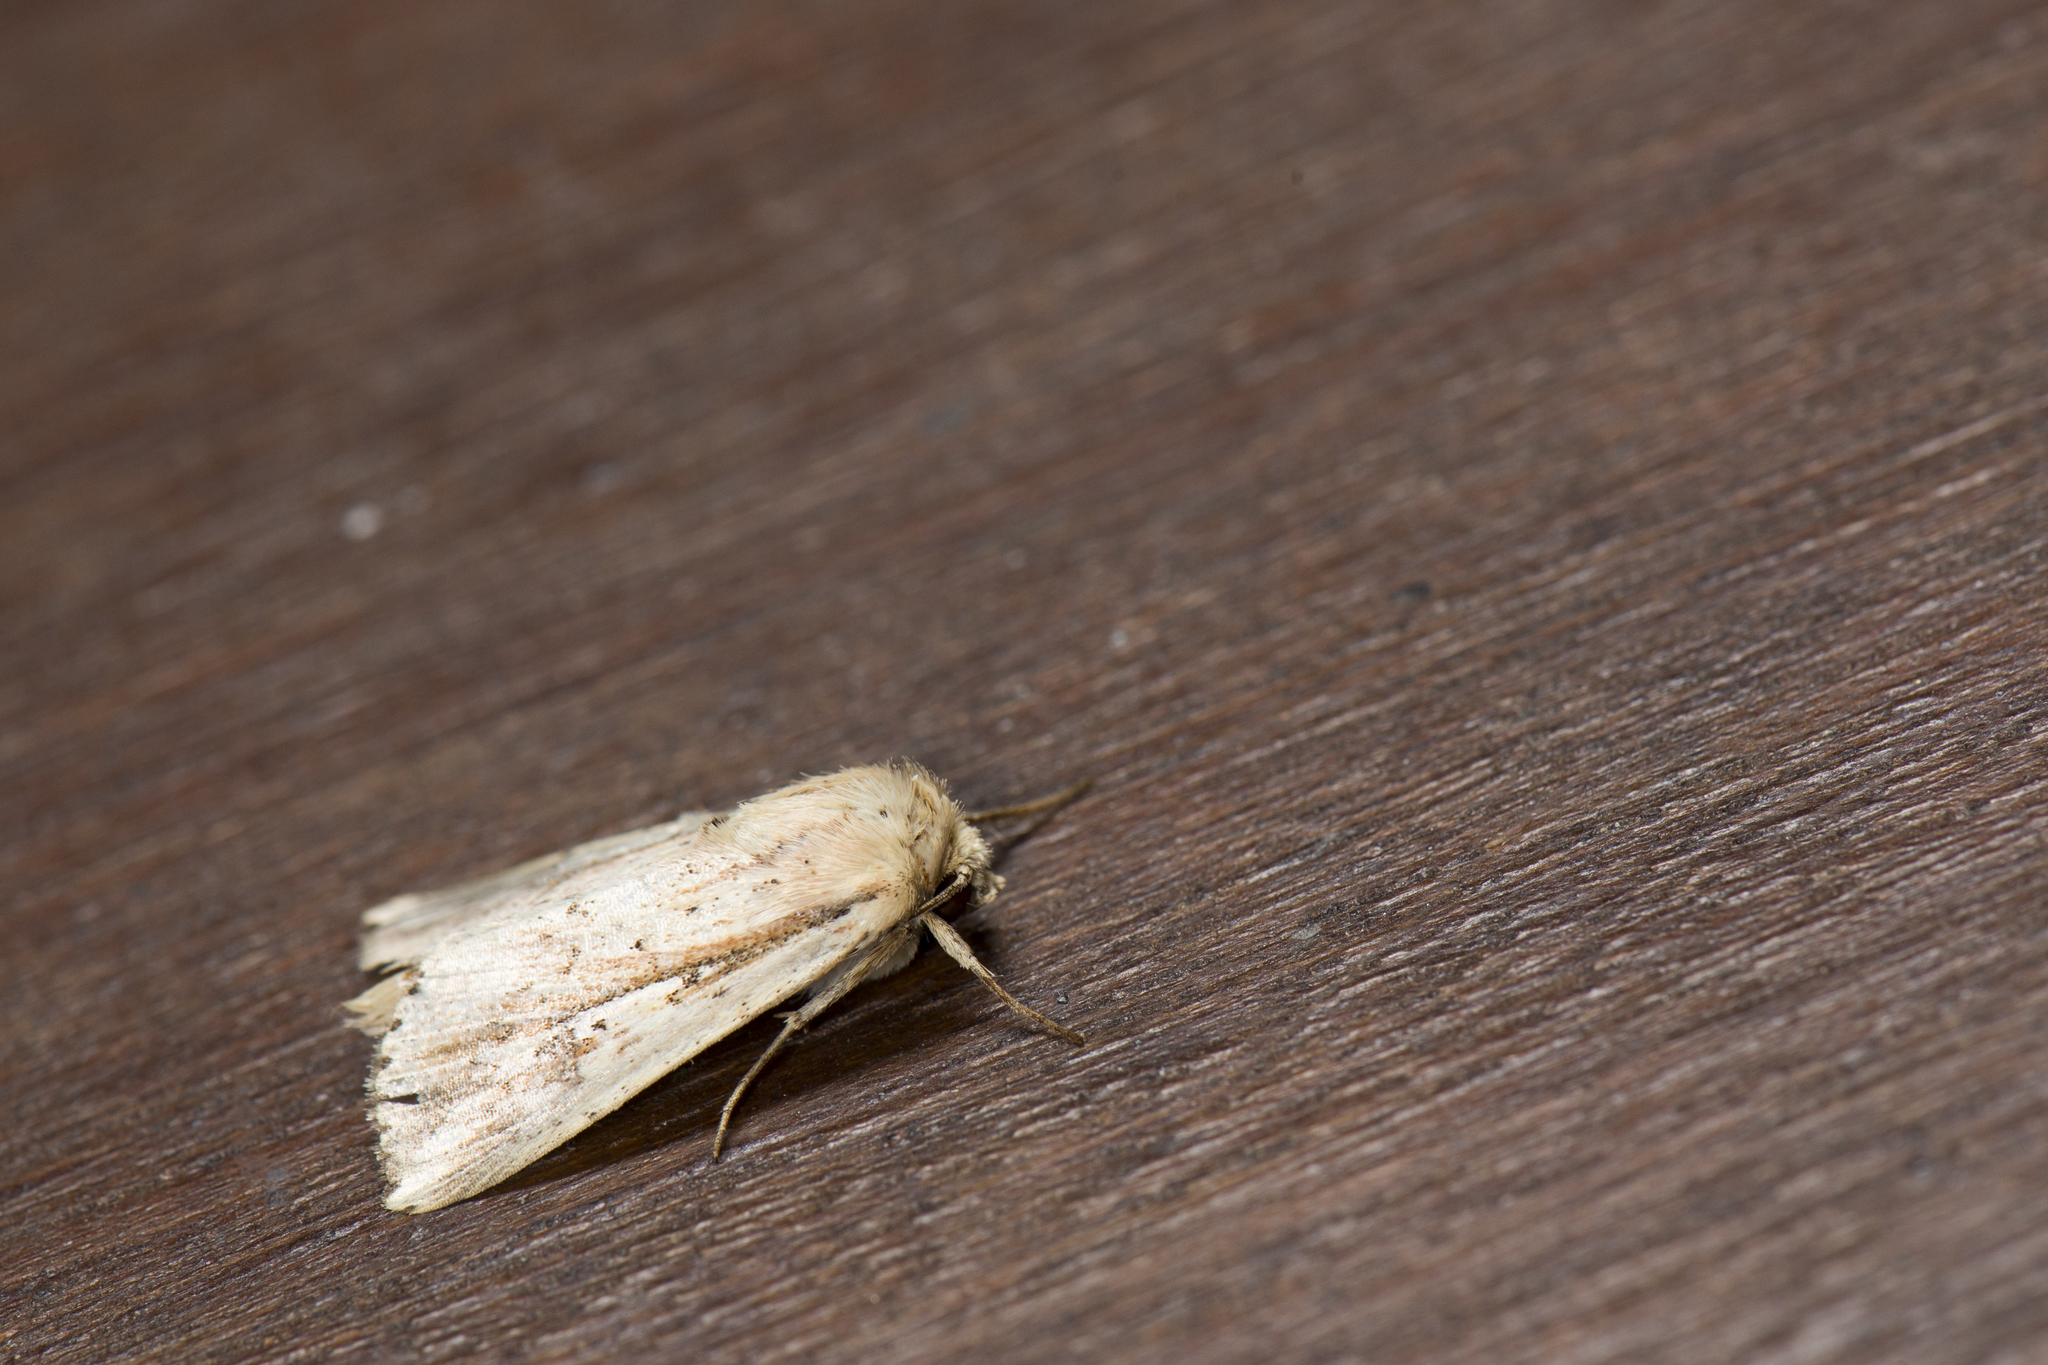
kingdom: Animalia
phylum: Arthropoda
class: Insecta
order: Lepidoptera
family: Noctuidae
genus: Mythimna
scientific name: Mythimna pulchra
